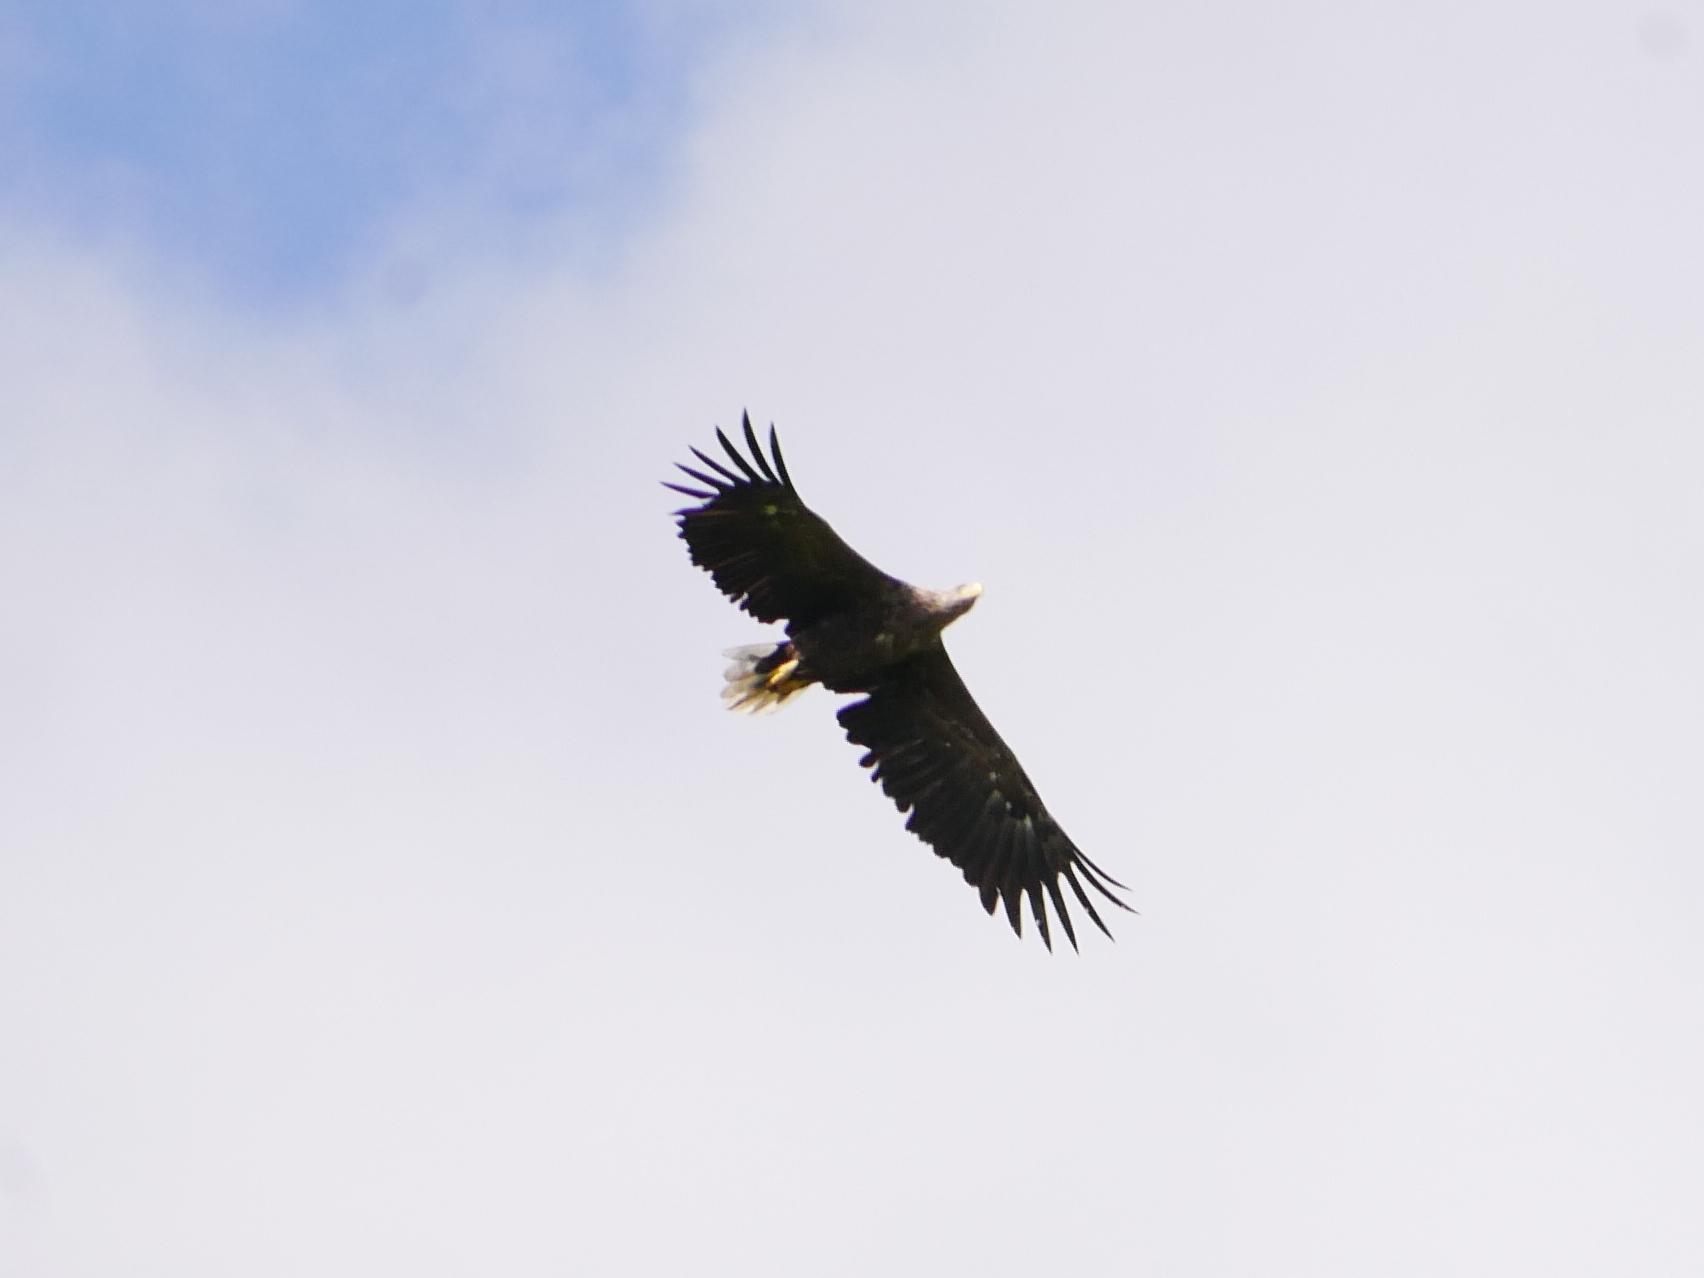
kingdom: Animalia
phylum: Chordata
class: Aves
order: Accipitriformes
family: Accipitridae
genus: Haliaeetus
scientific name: Haliaeetus albicilla
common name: White-tailed eagle
